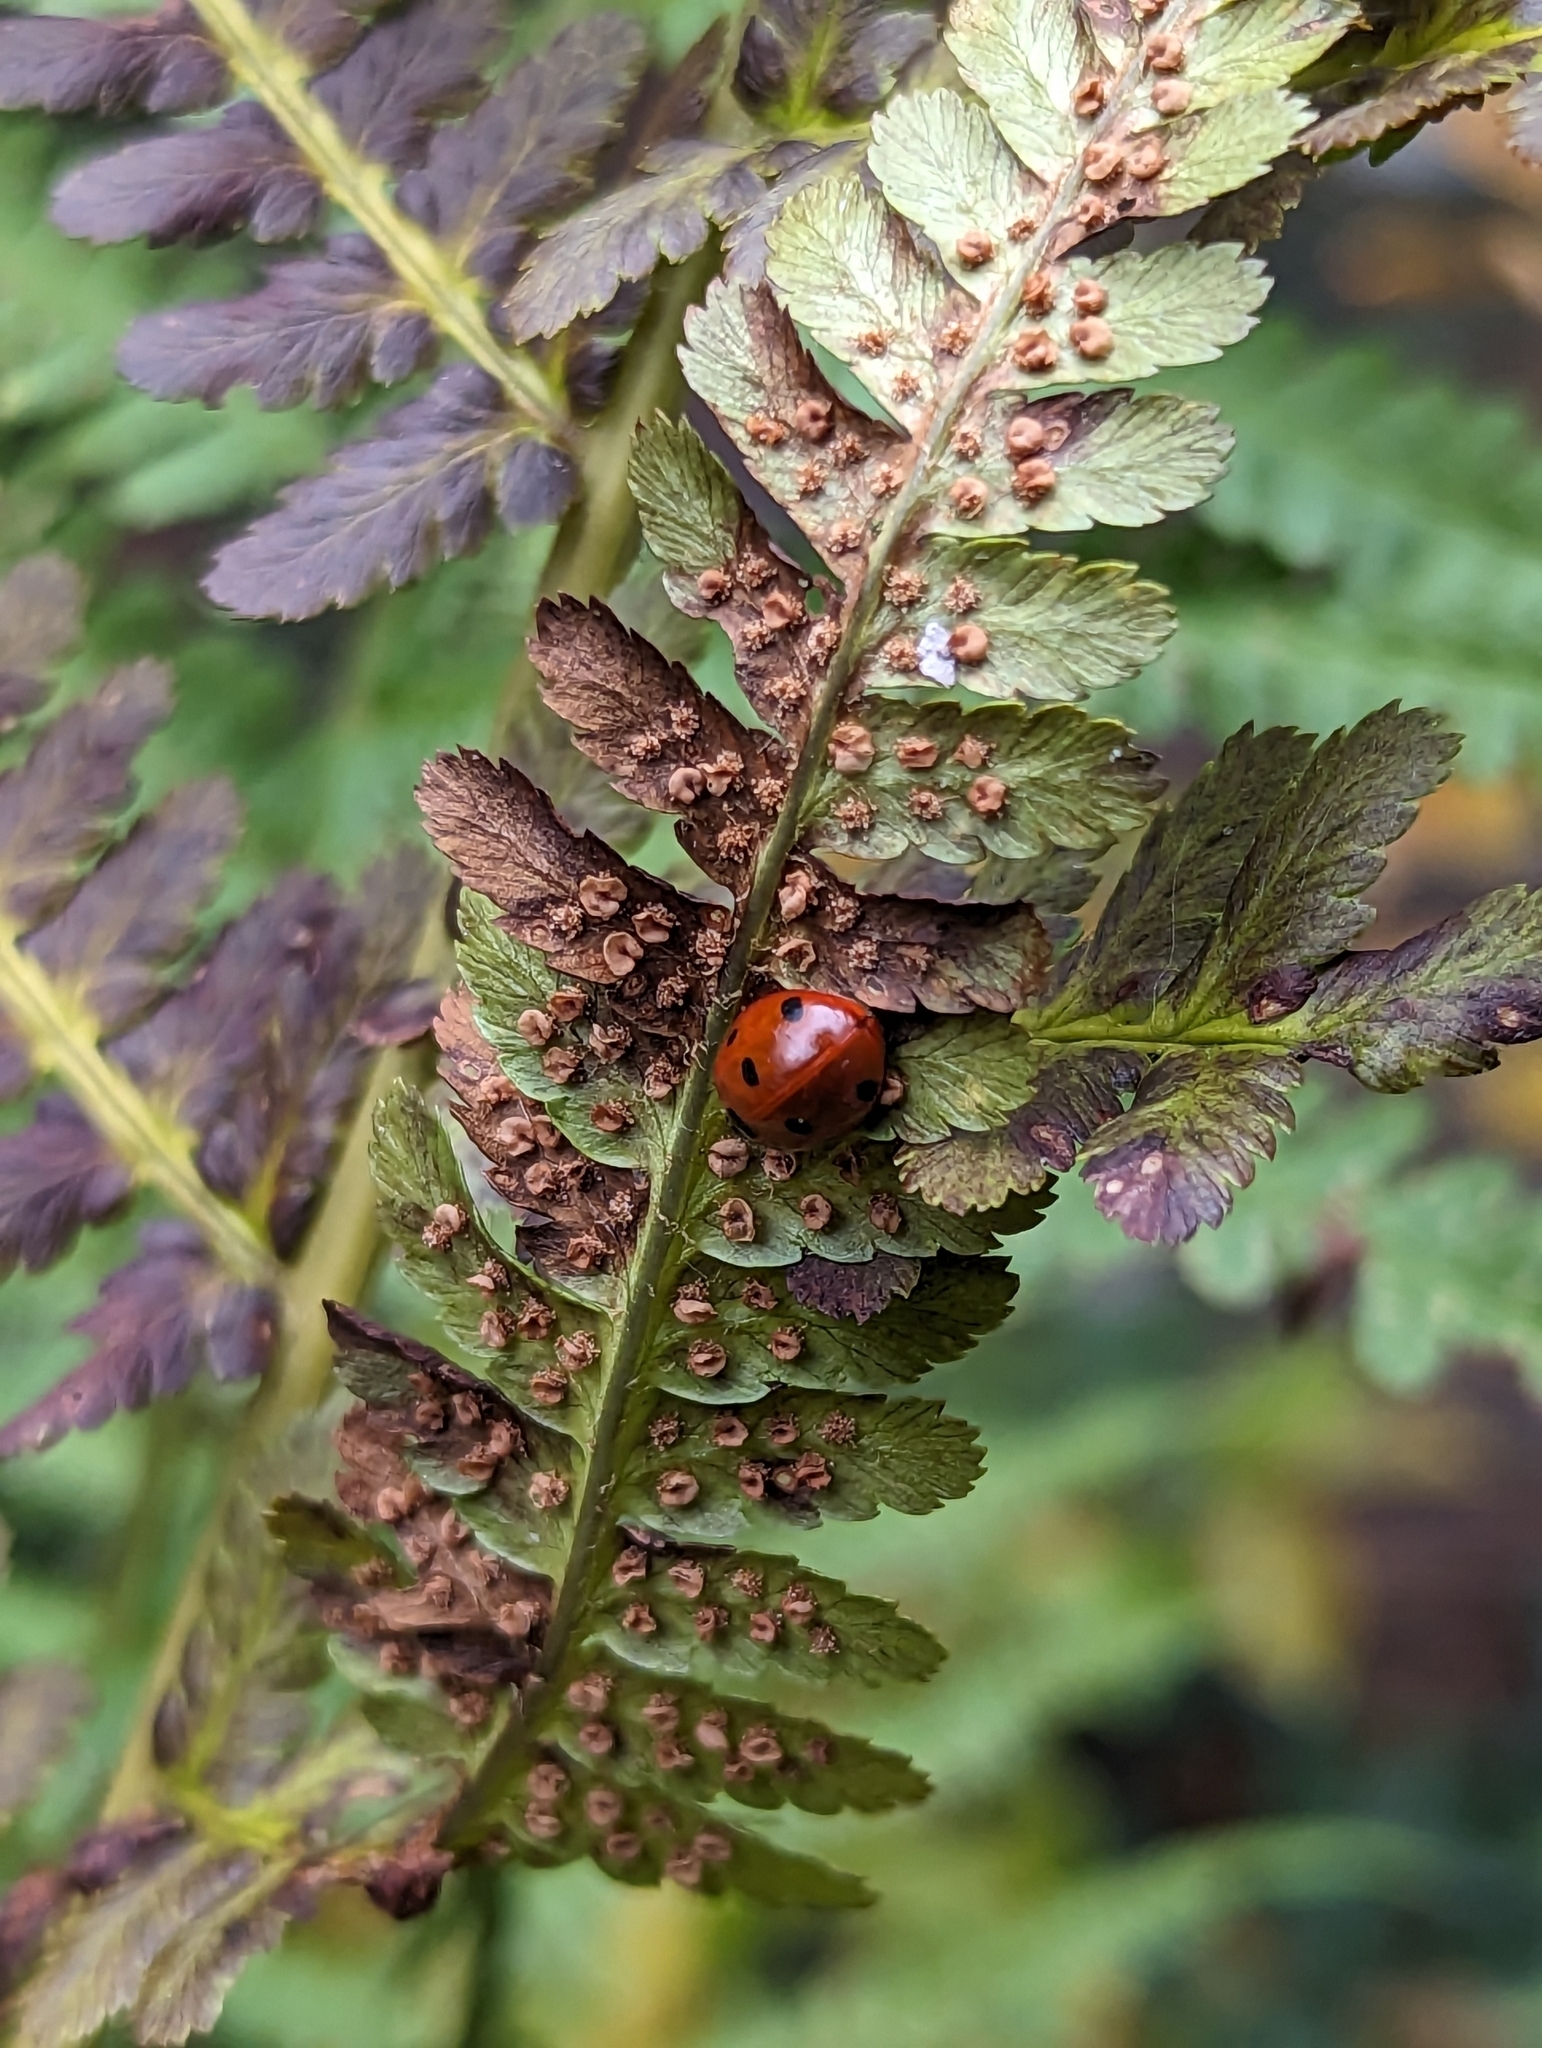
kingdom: Animalia
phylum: Arthropoda
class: Insecta
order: Coleoptera
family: Coccinellidae
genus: Coccinella
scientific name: Coccinella septempunctata
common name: Sevenspotted lady beetle
